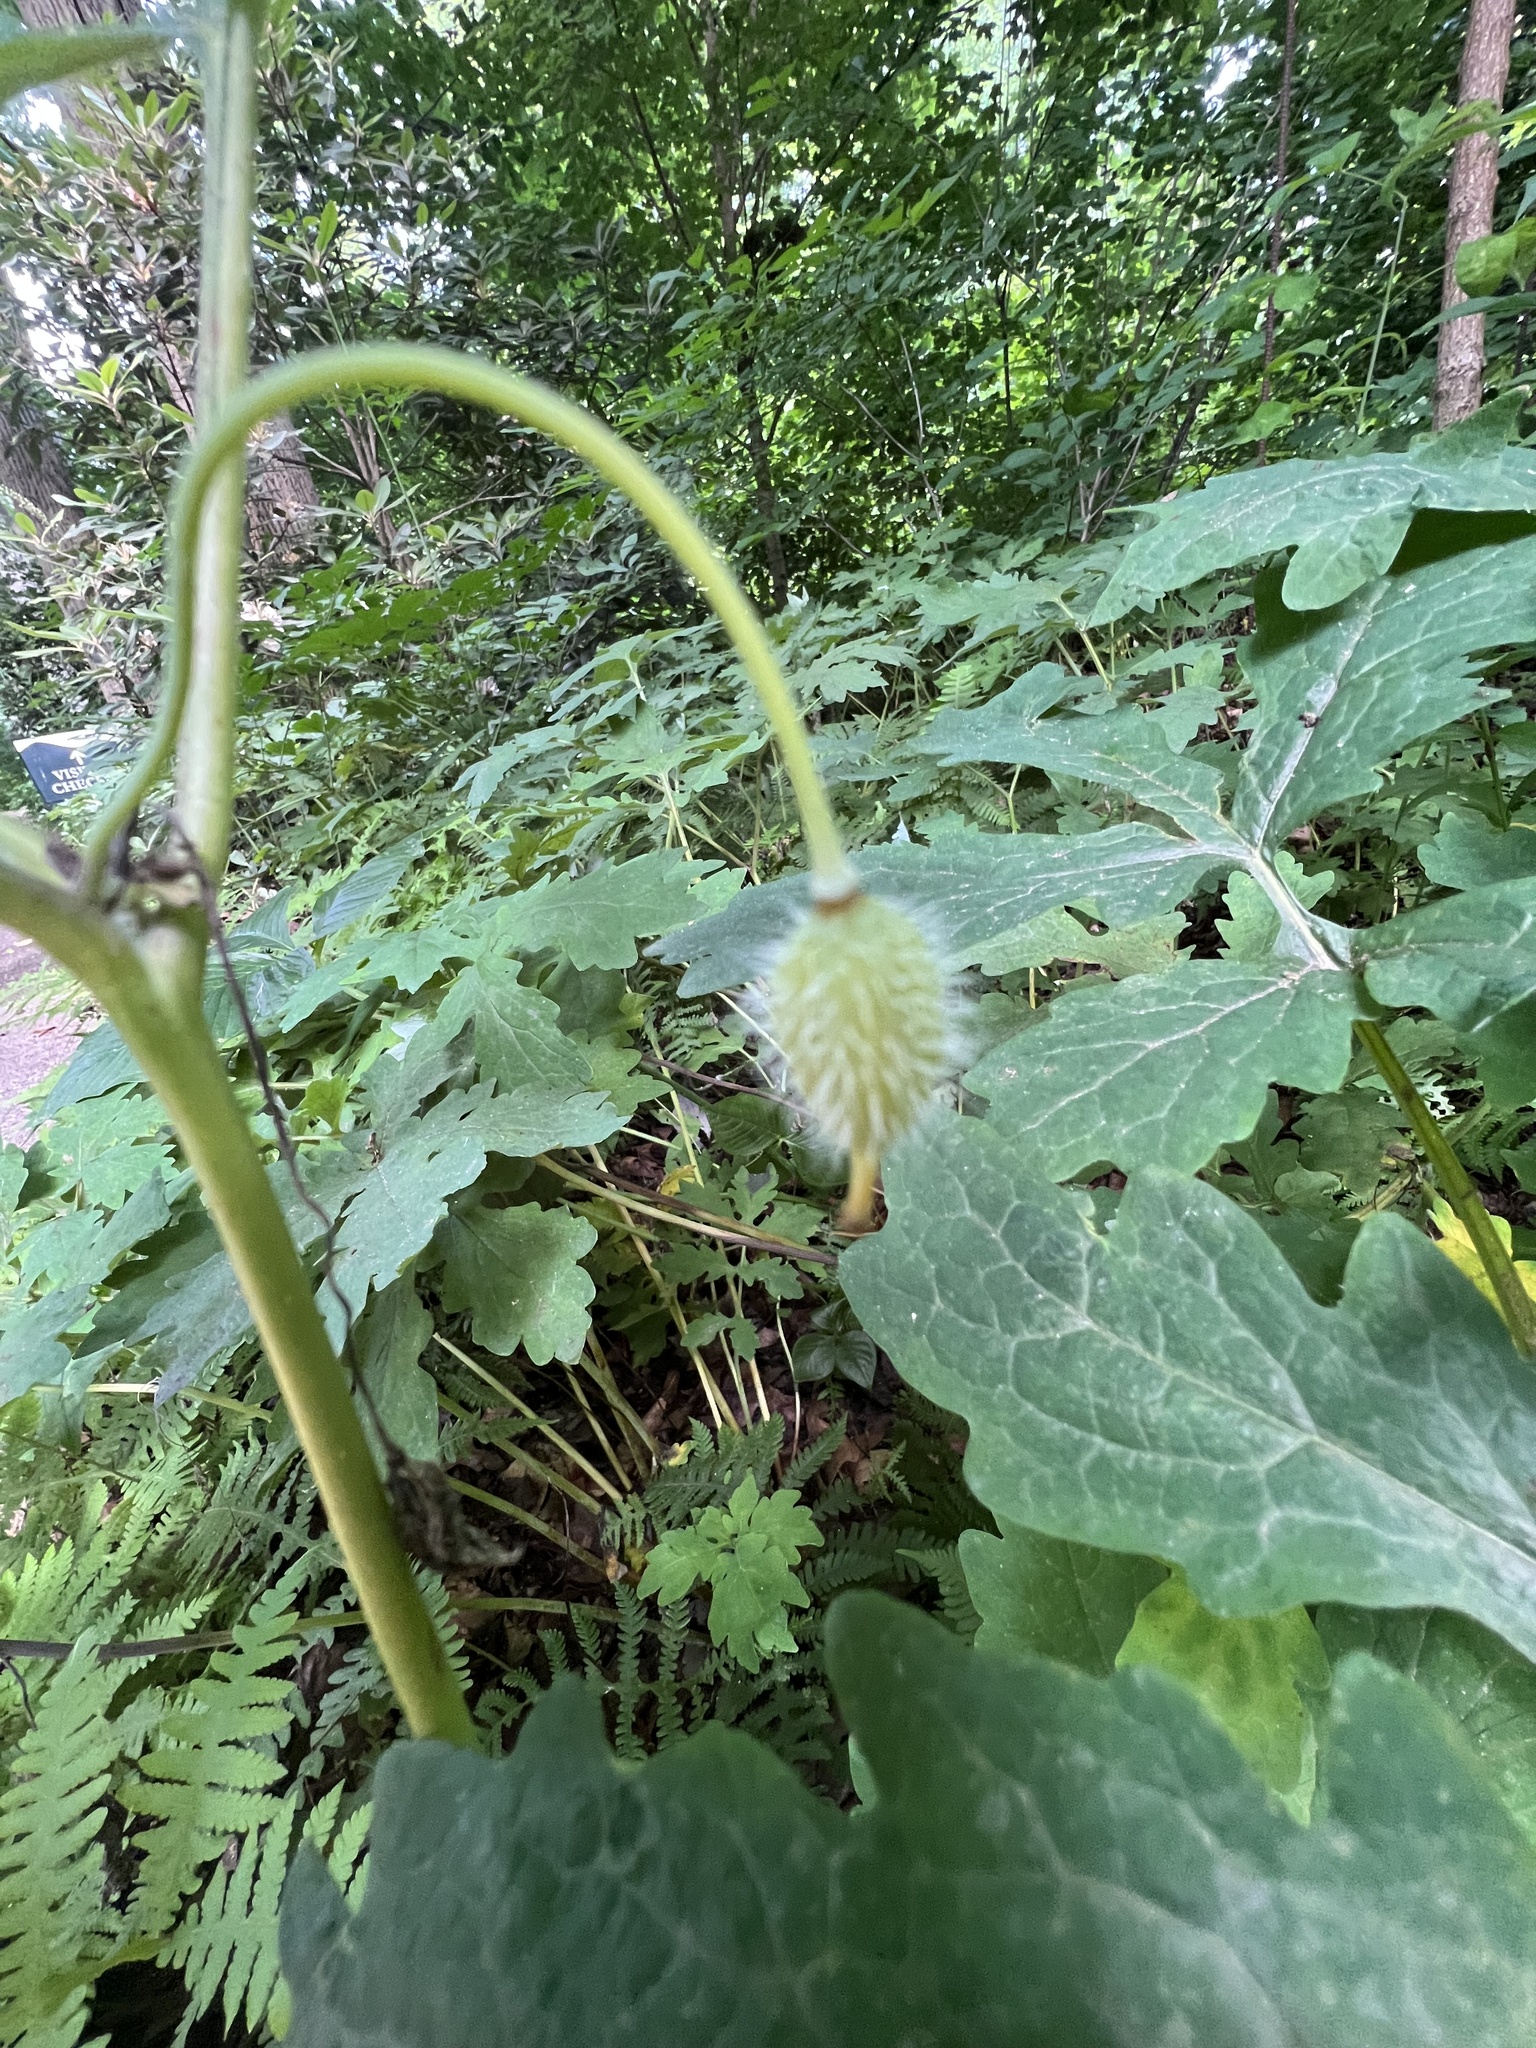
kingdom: Plantae
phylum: Tracheophyta
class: Magnoliopsida
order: Ranunculales
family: Papaveraceae
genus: Stylophorum
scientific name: Stylophorum diphyllum
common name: Celandine poppy
